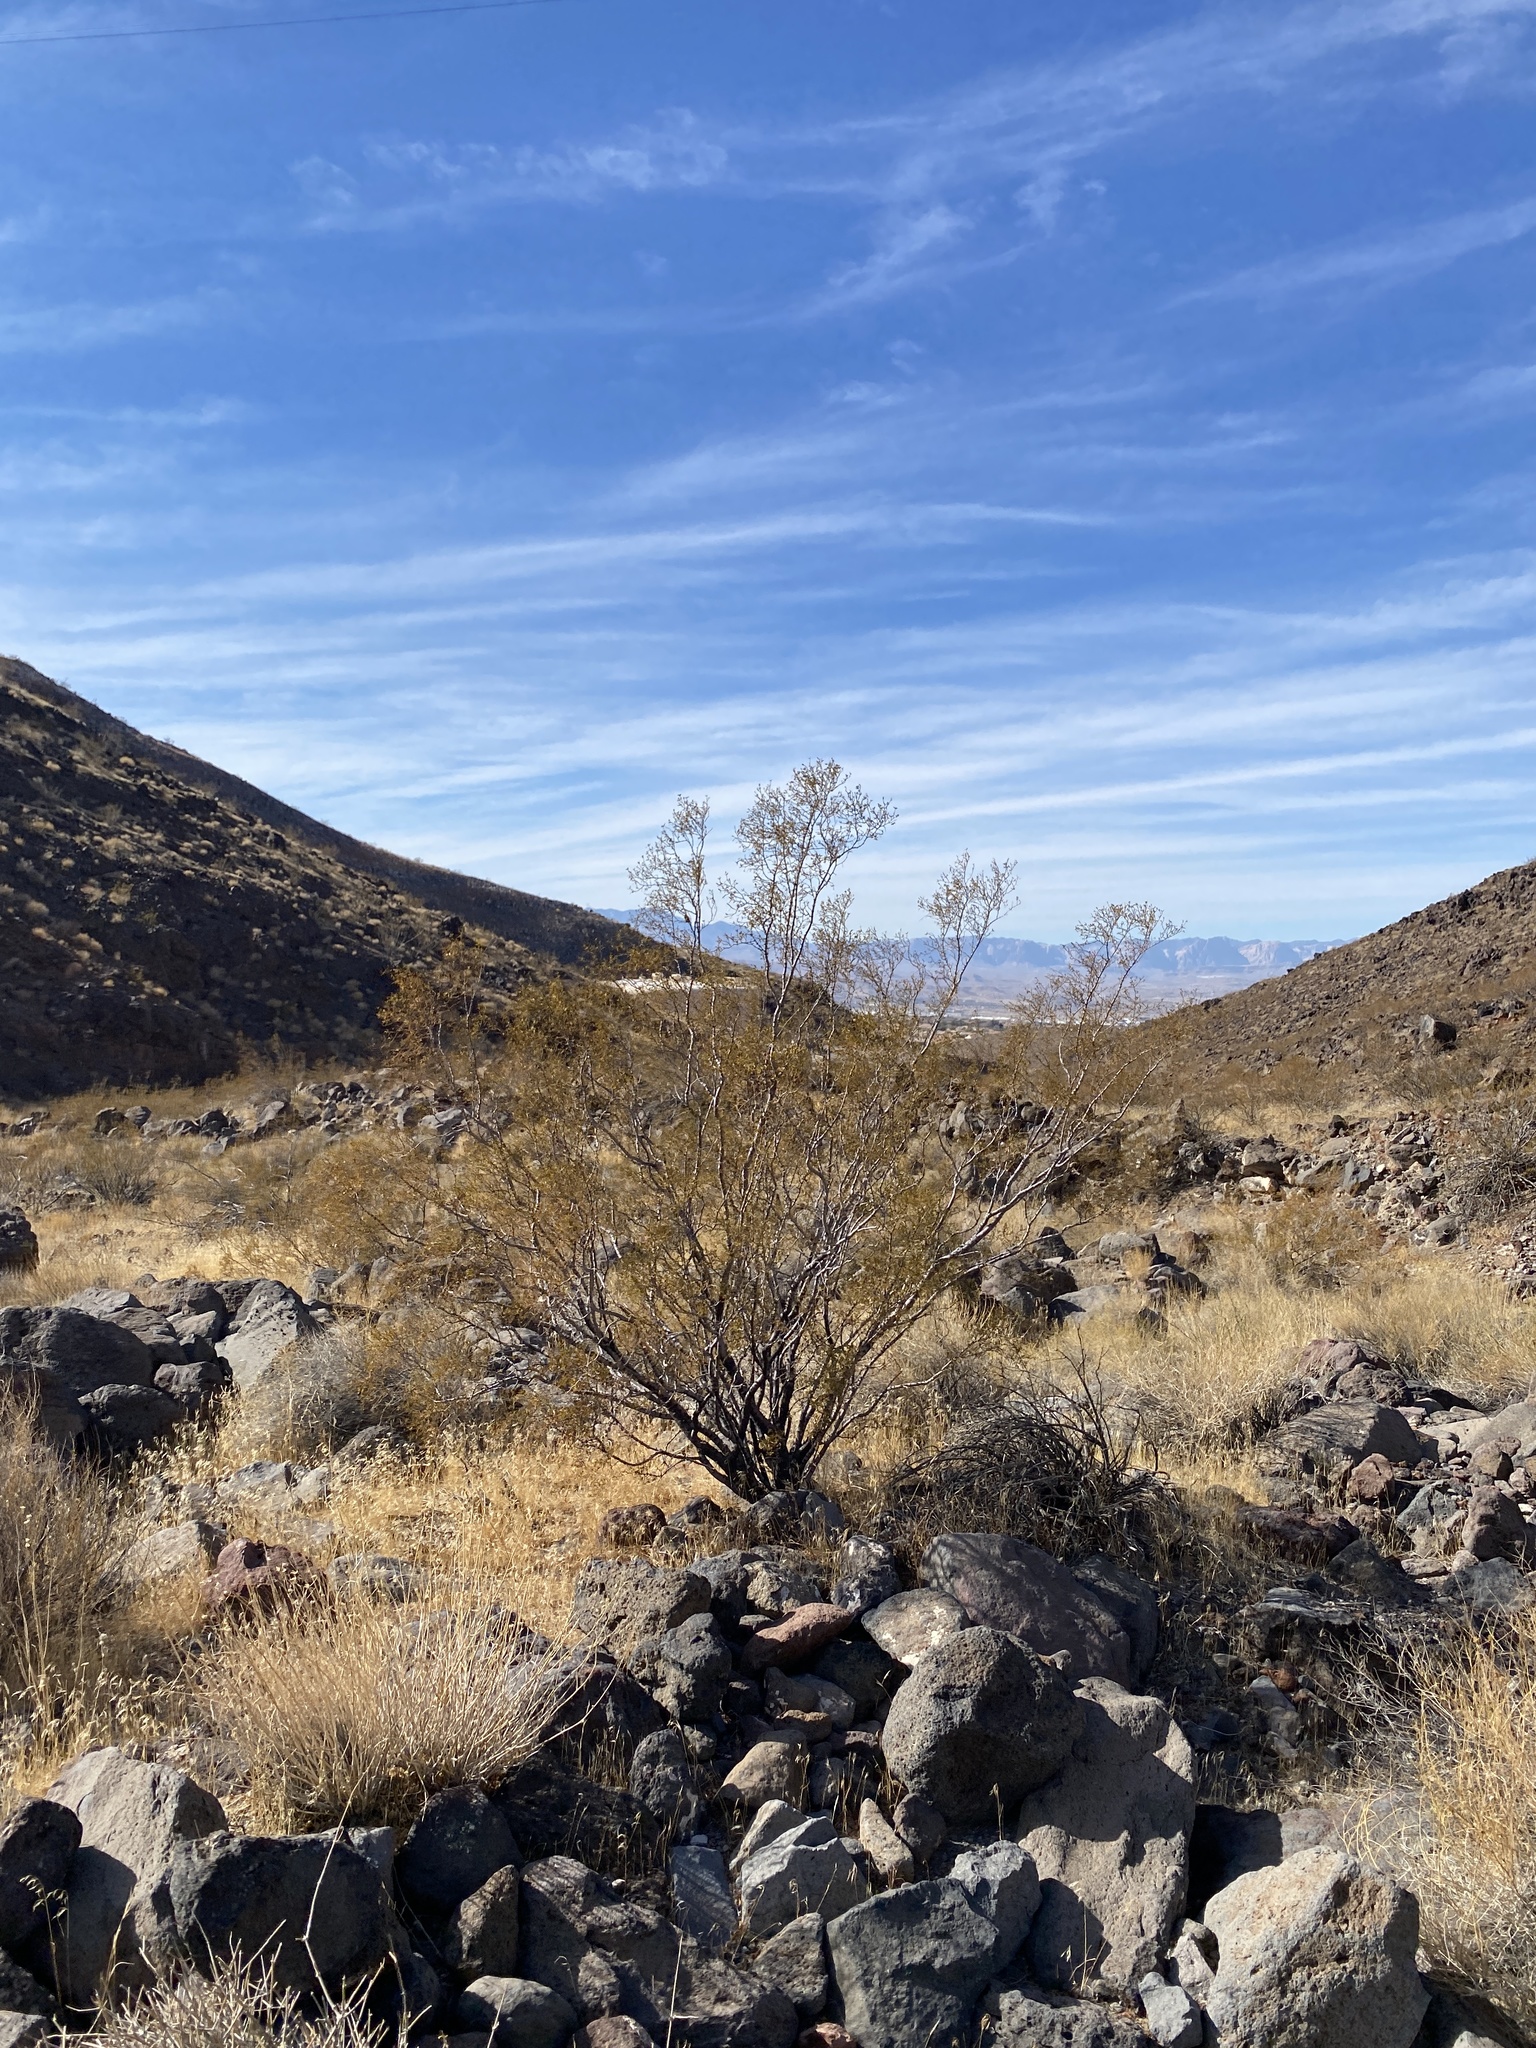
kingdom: Plantae
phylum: Tracheophyta
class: Magnoliopsida
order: Zygophyllales
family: Zygophyllaceae
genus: Larrea
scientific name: Larrea tridentata
